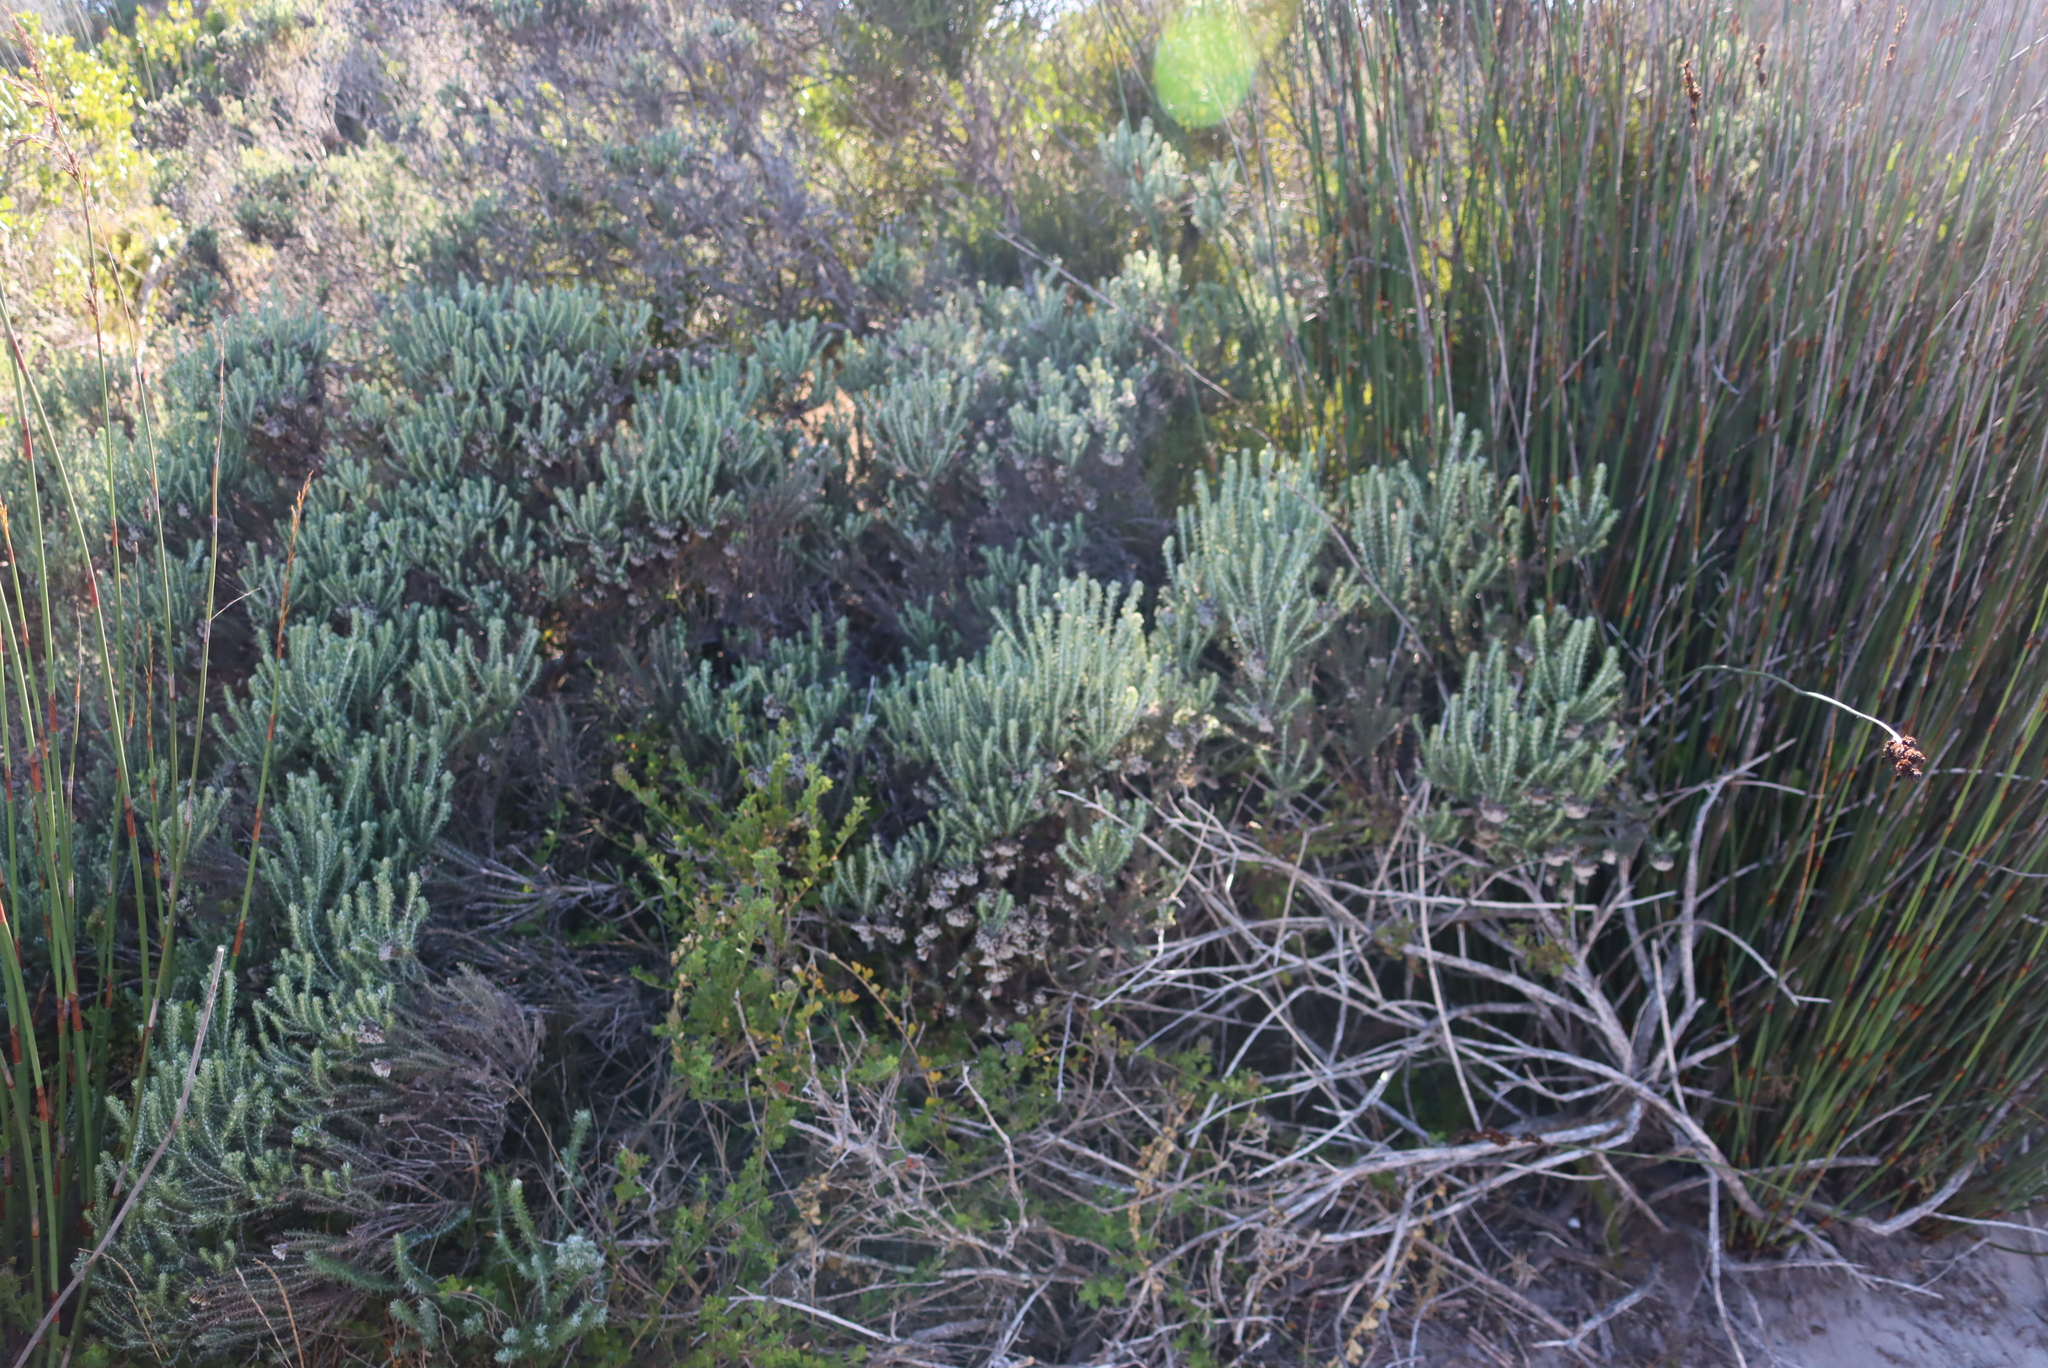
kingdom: Plantae
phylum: Tracheophyta
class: Magnoliopsida
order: Asterales
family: Asteraceae
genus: Metalasia
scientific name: Metalasia muricata
